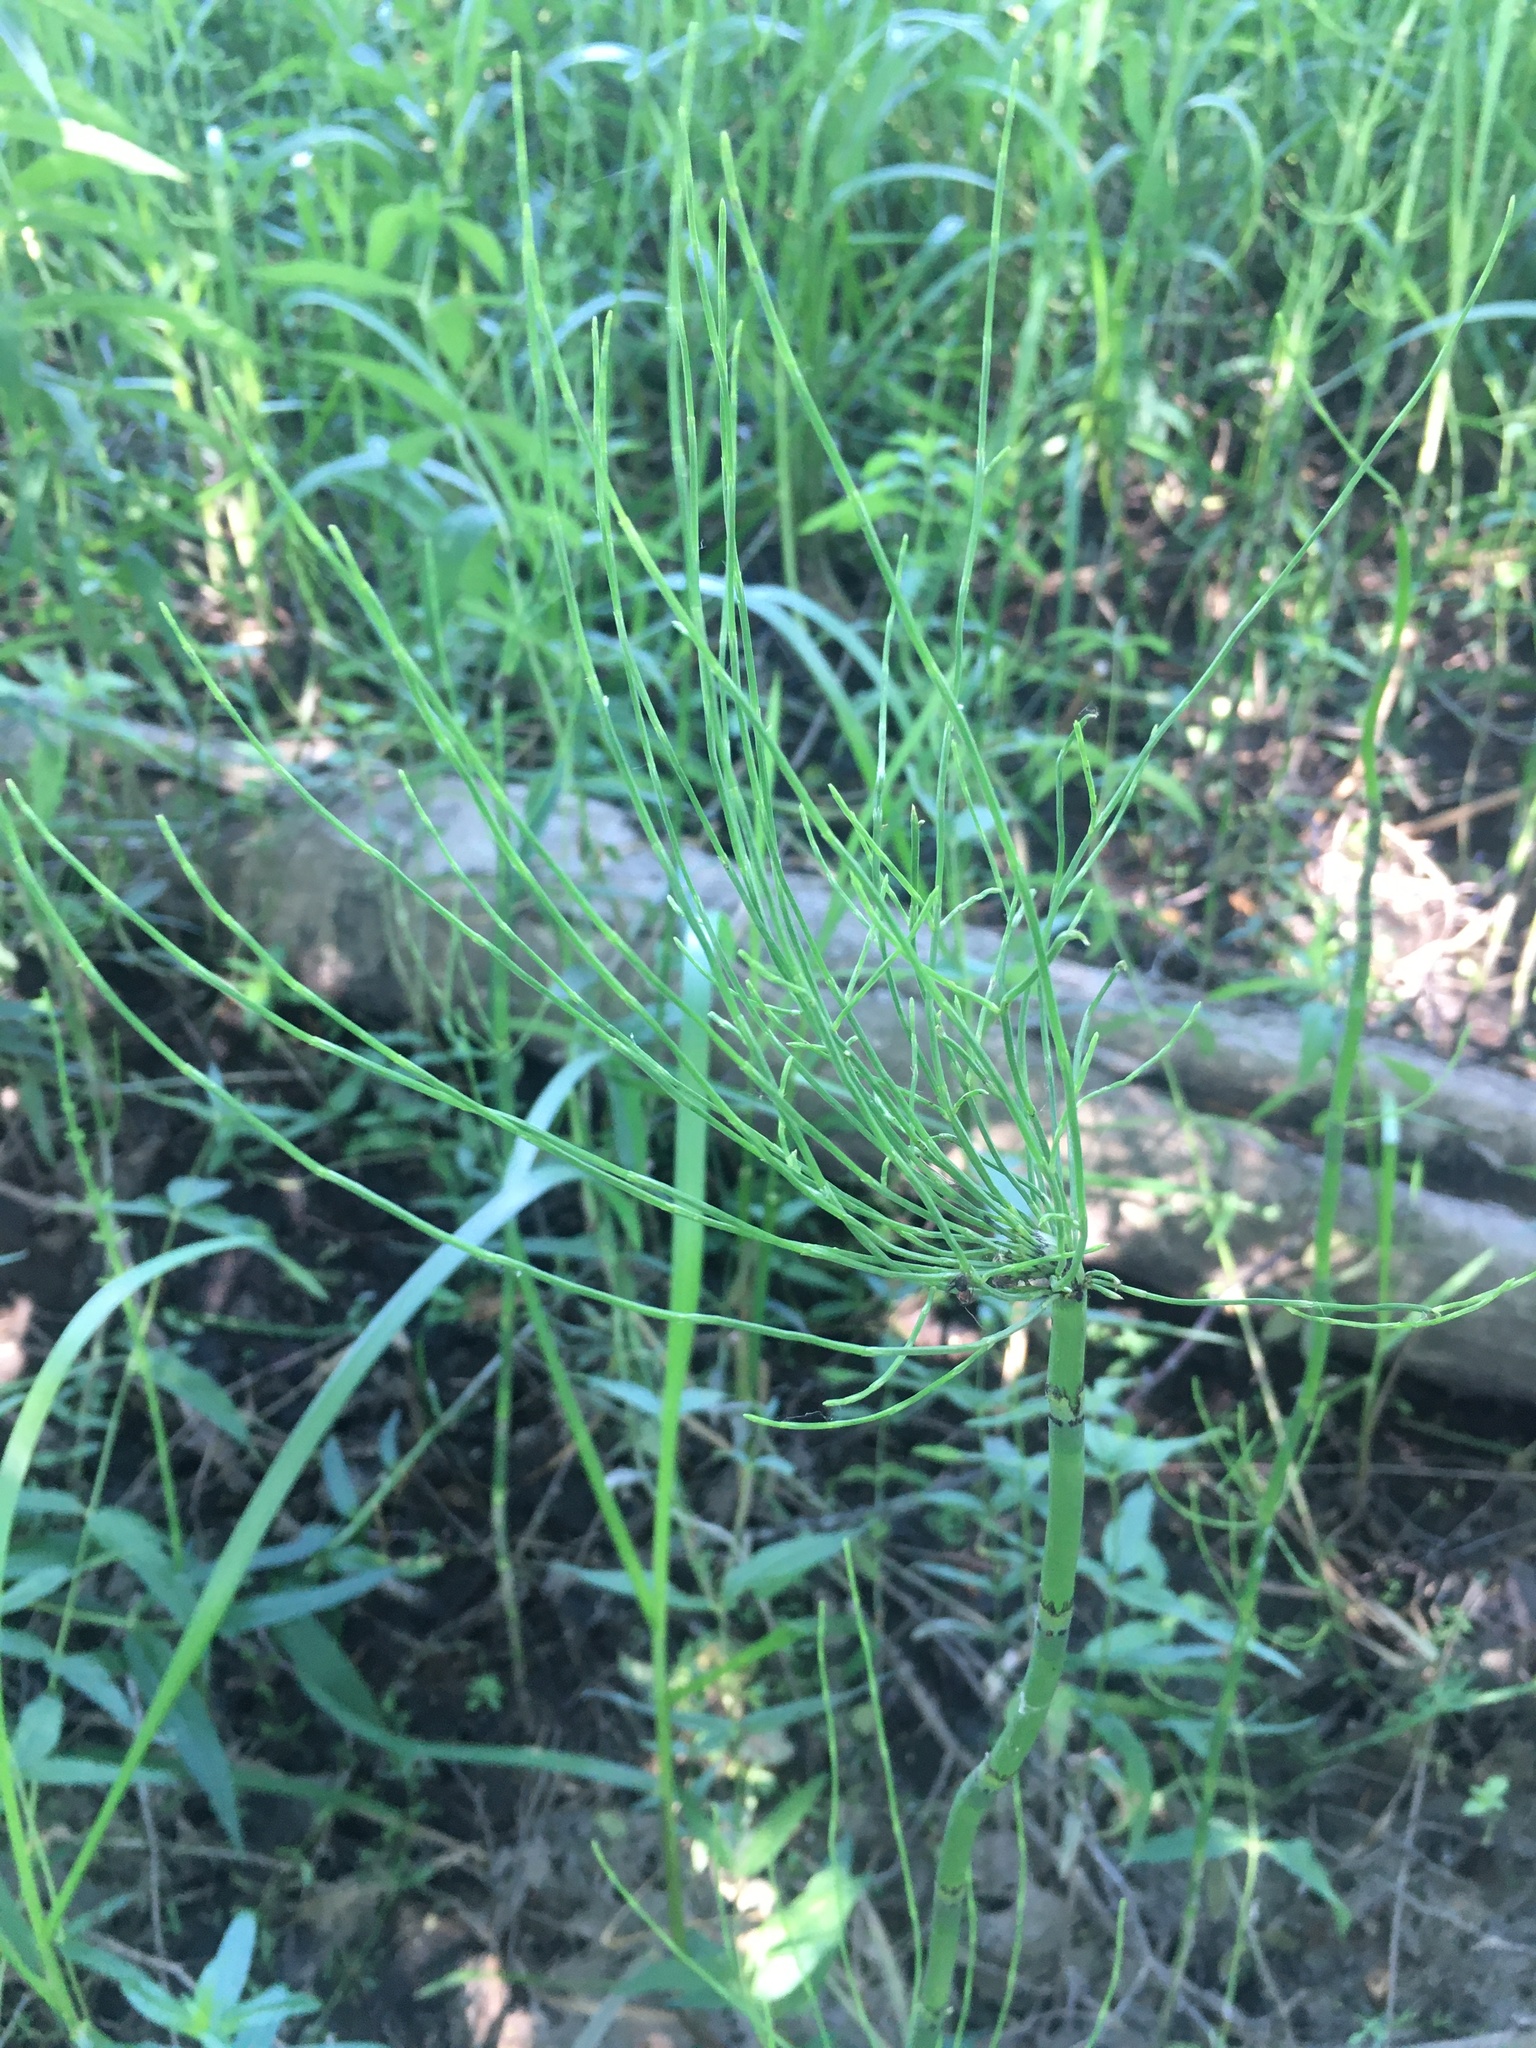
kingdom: Plantae
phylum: Tracheophyta
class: Polypodiopsida
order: Equisetales
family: Equisetaceae
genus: Equisetum
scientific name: Equisetum fluviatile
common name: Water horsetail
